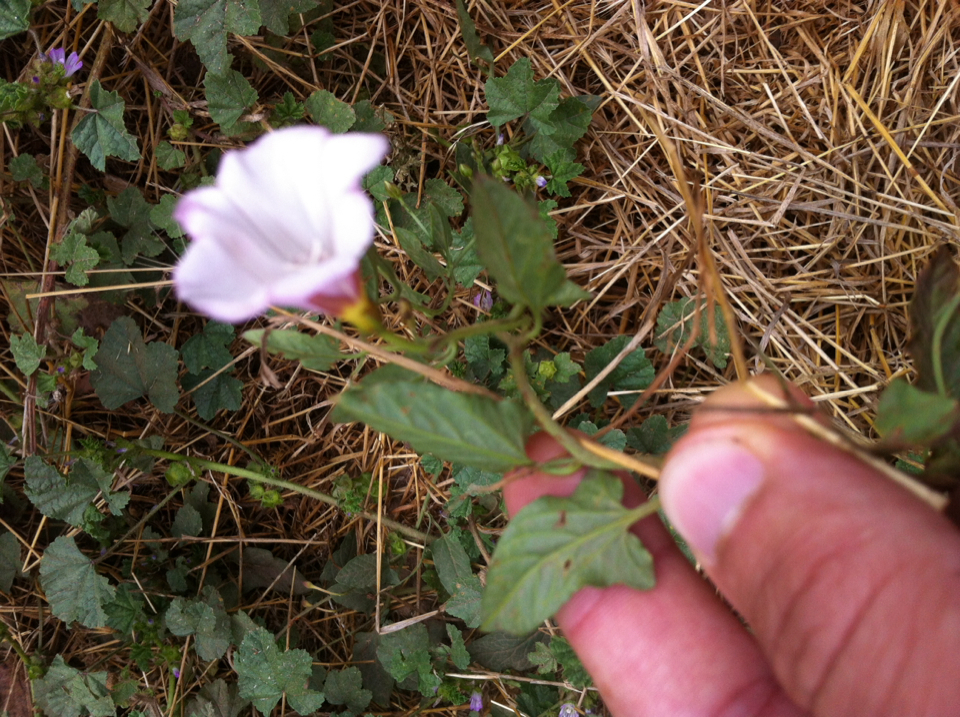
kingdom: Plantae
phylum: Tracheophyta
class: Magnoliopsida
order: Solanales
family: Convolvulaceae
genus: Convolvulus
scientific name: Convolvulus arvensis
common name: Field bindweed
